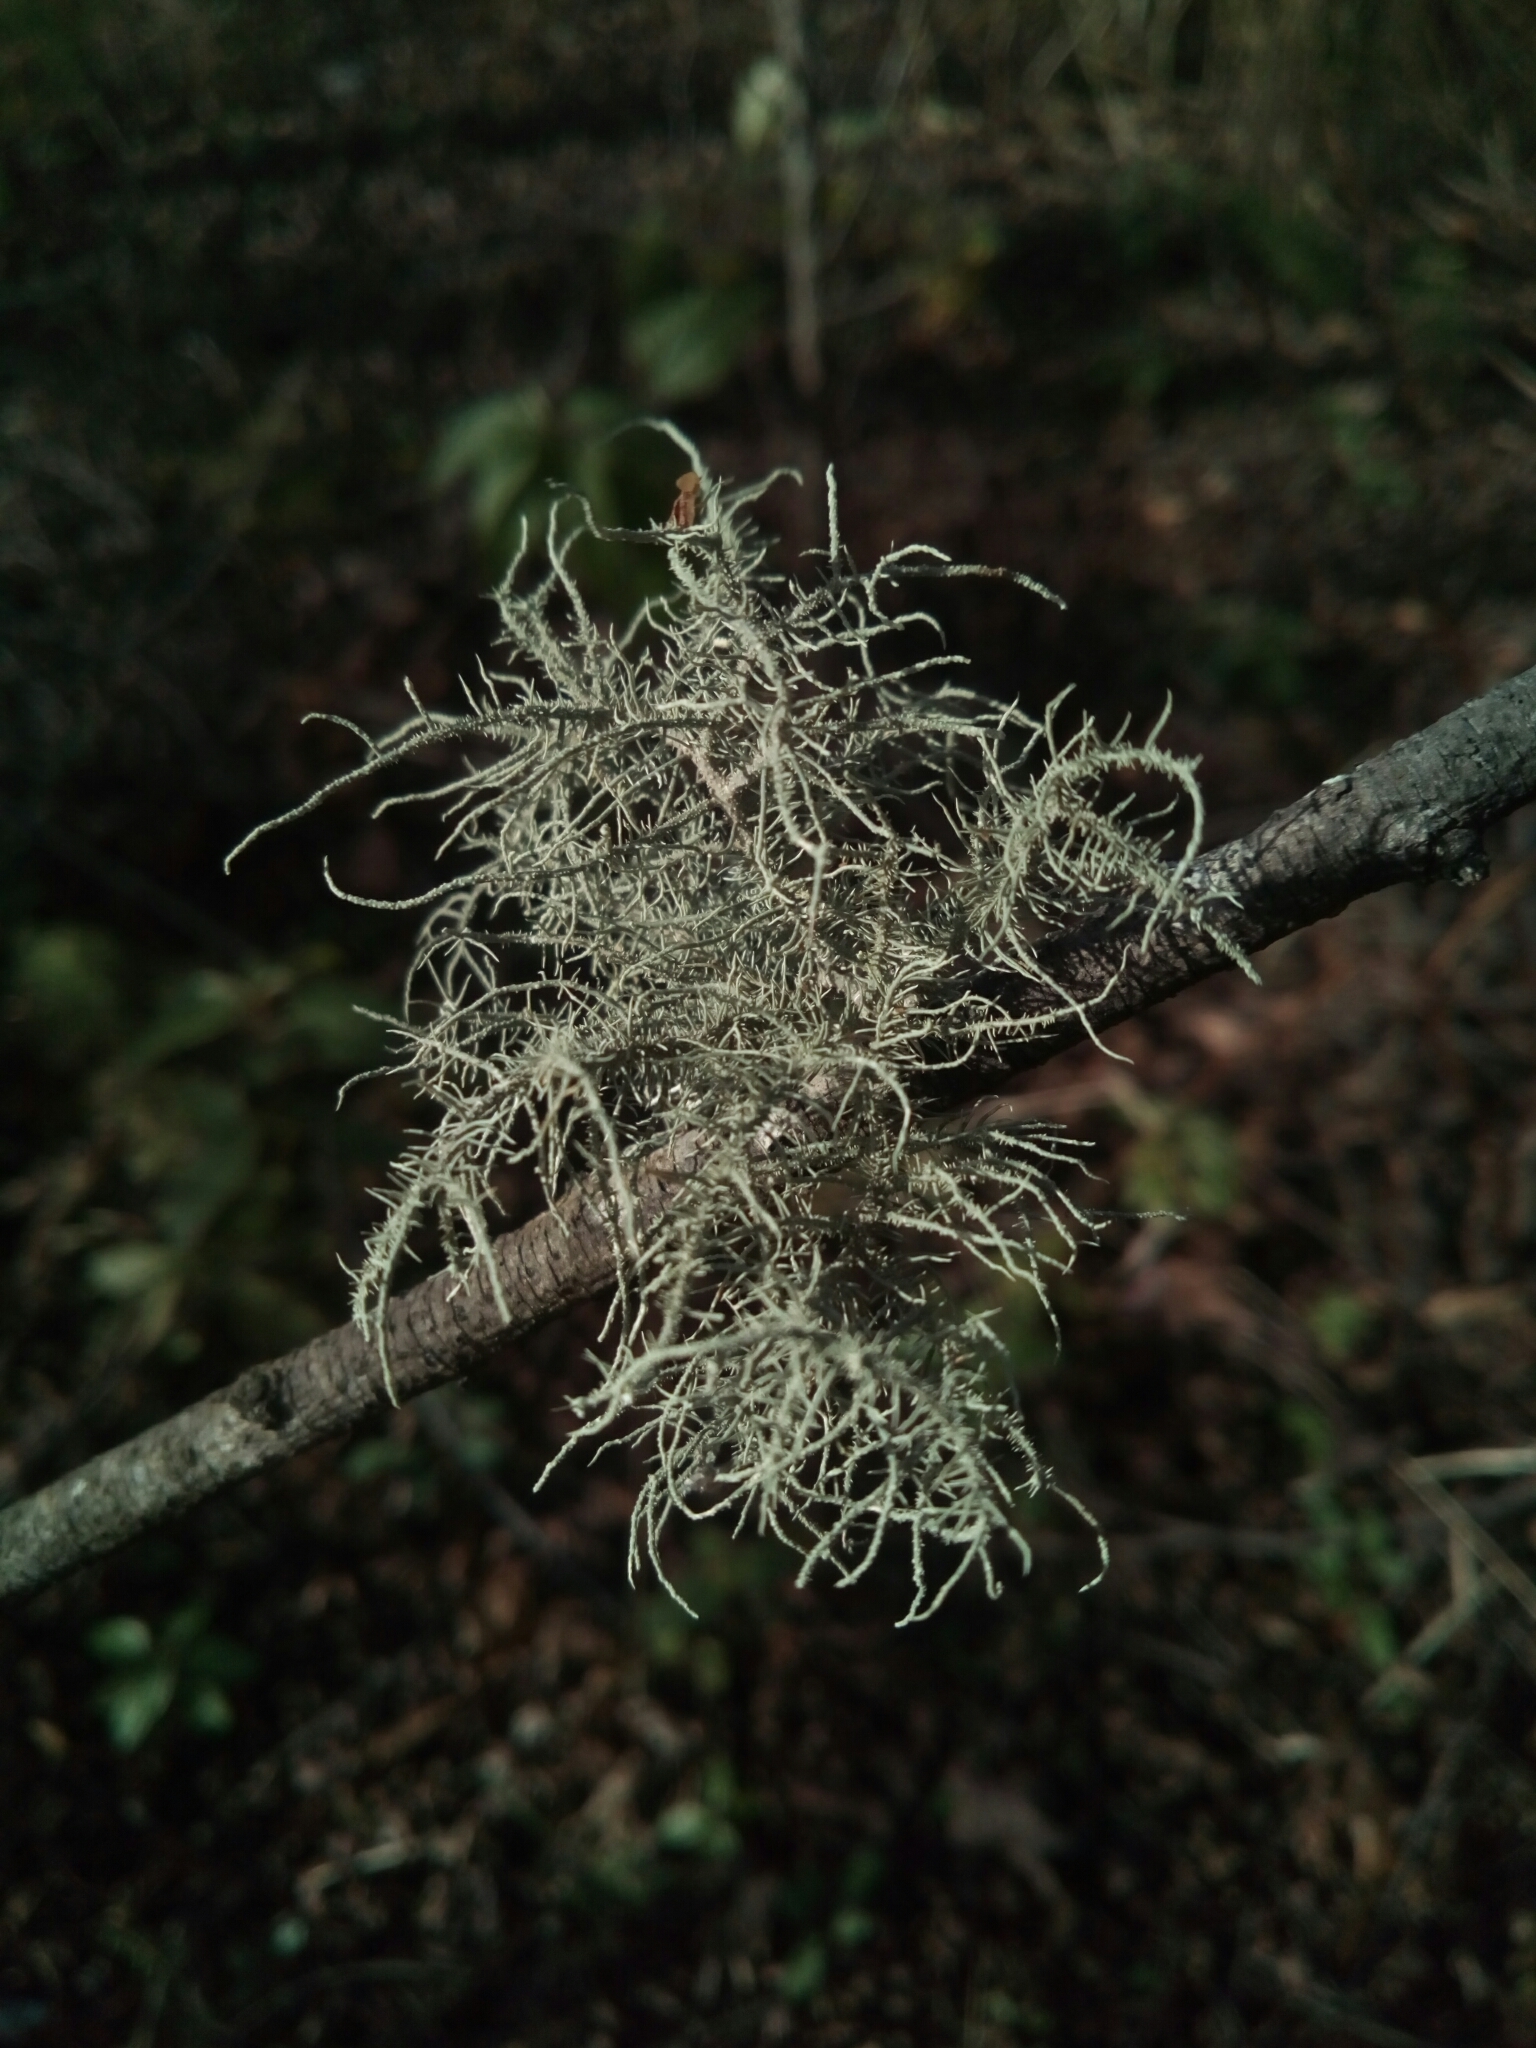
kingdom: Fungi
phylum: Ascomycota
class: Lecanoromycetes
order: Lecanorales
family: Parmeliaceae
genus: Usnea
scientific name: Usnea strigosa
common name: Bushy beard lichen
